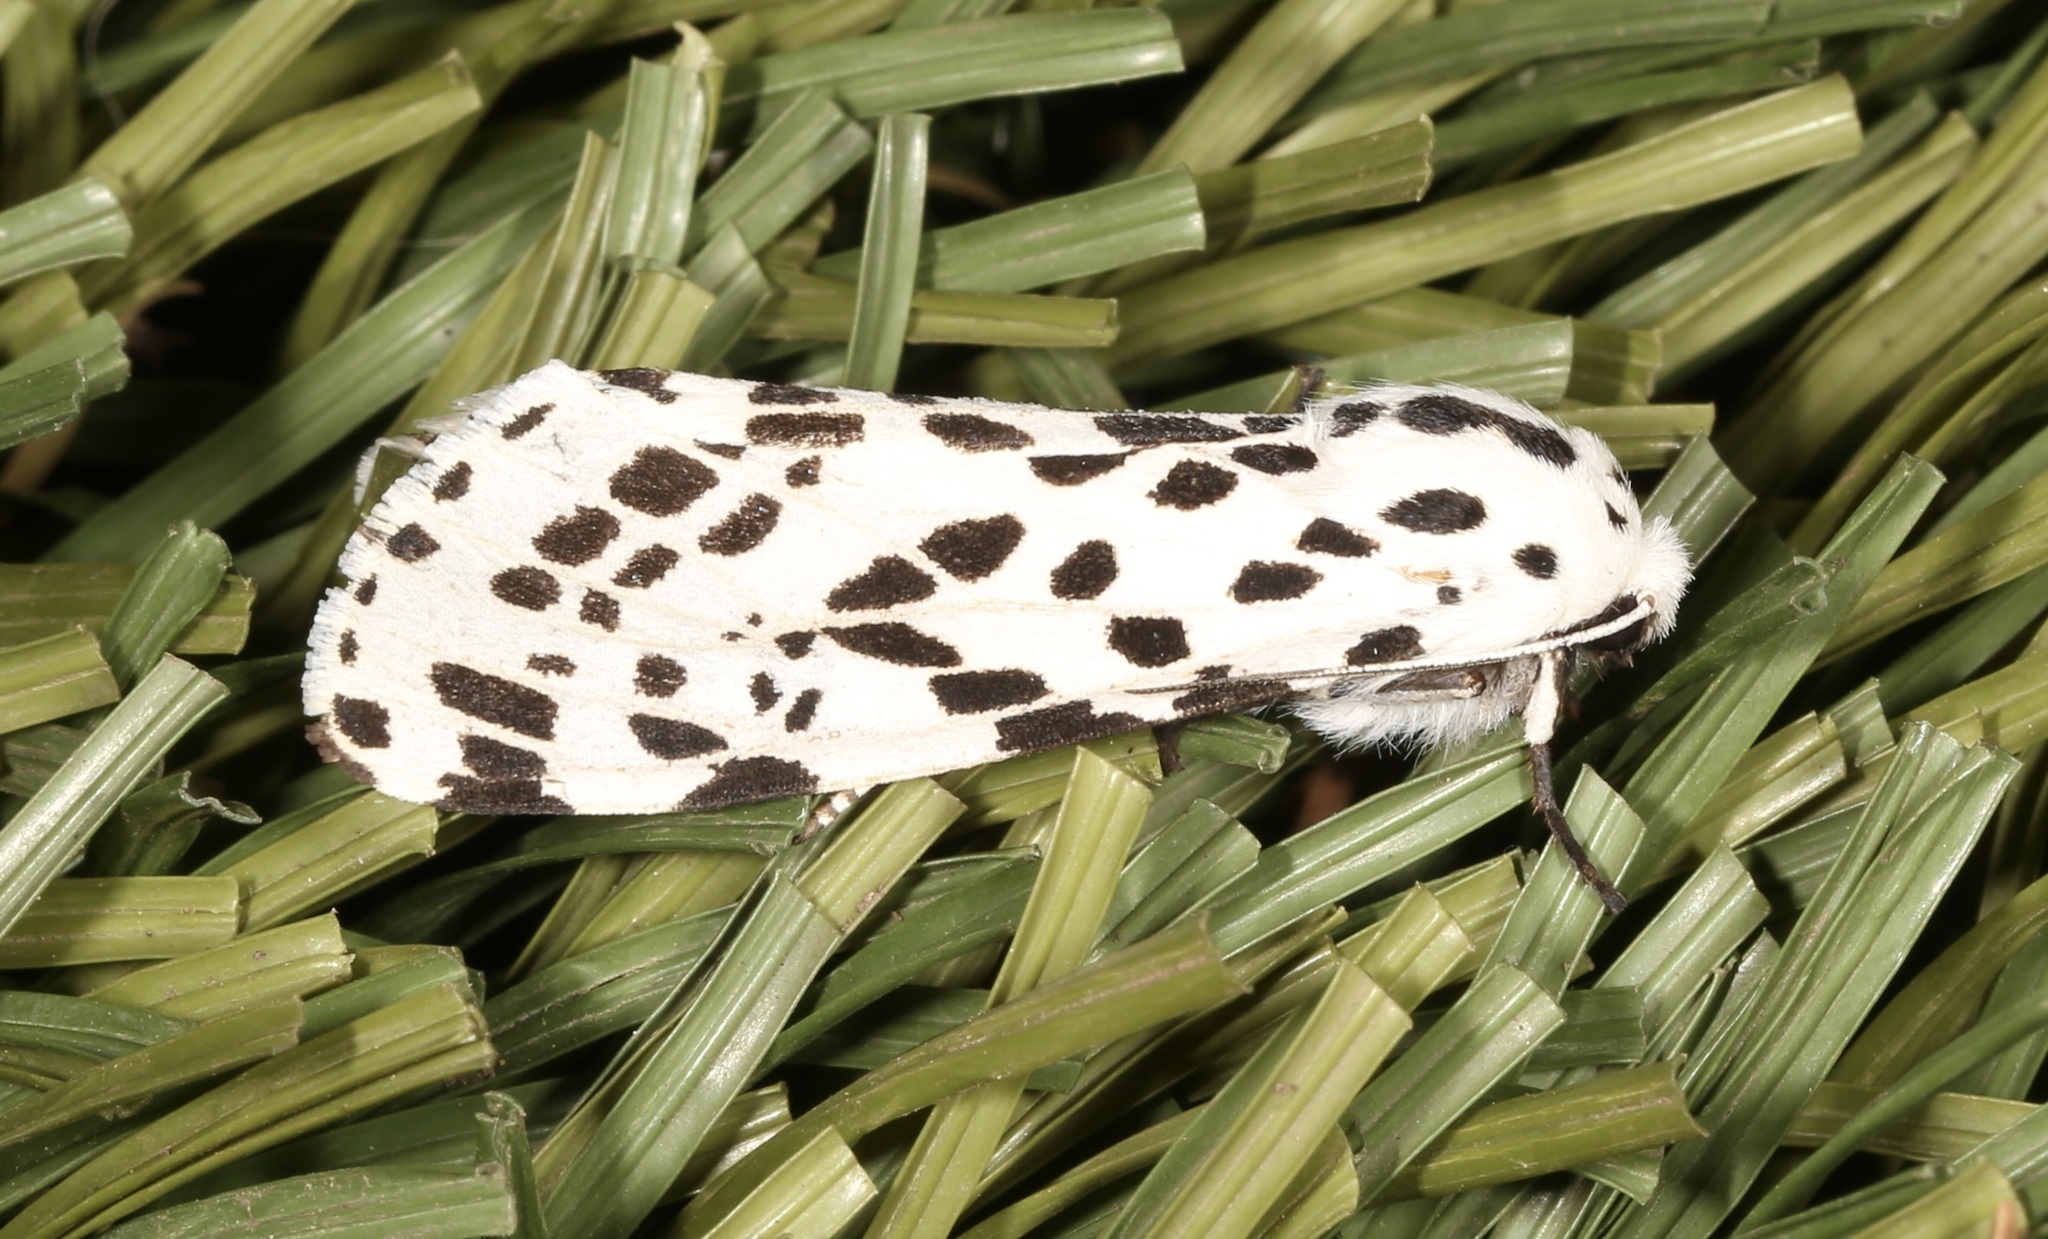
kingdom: Animalia
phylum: Arthropoda
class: Insecta
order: Lepidoptera
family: Erebidae
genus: Hypercompe
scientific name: Hypercompe permaculata
